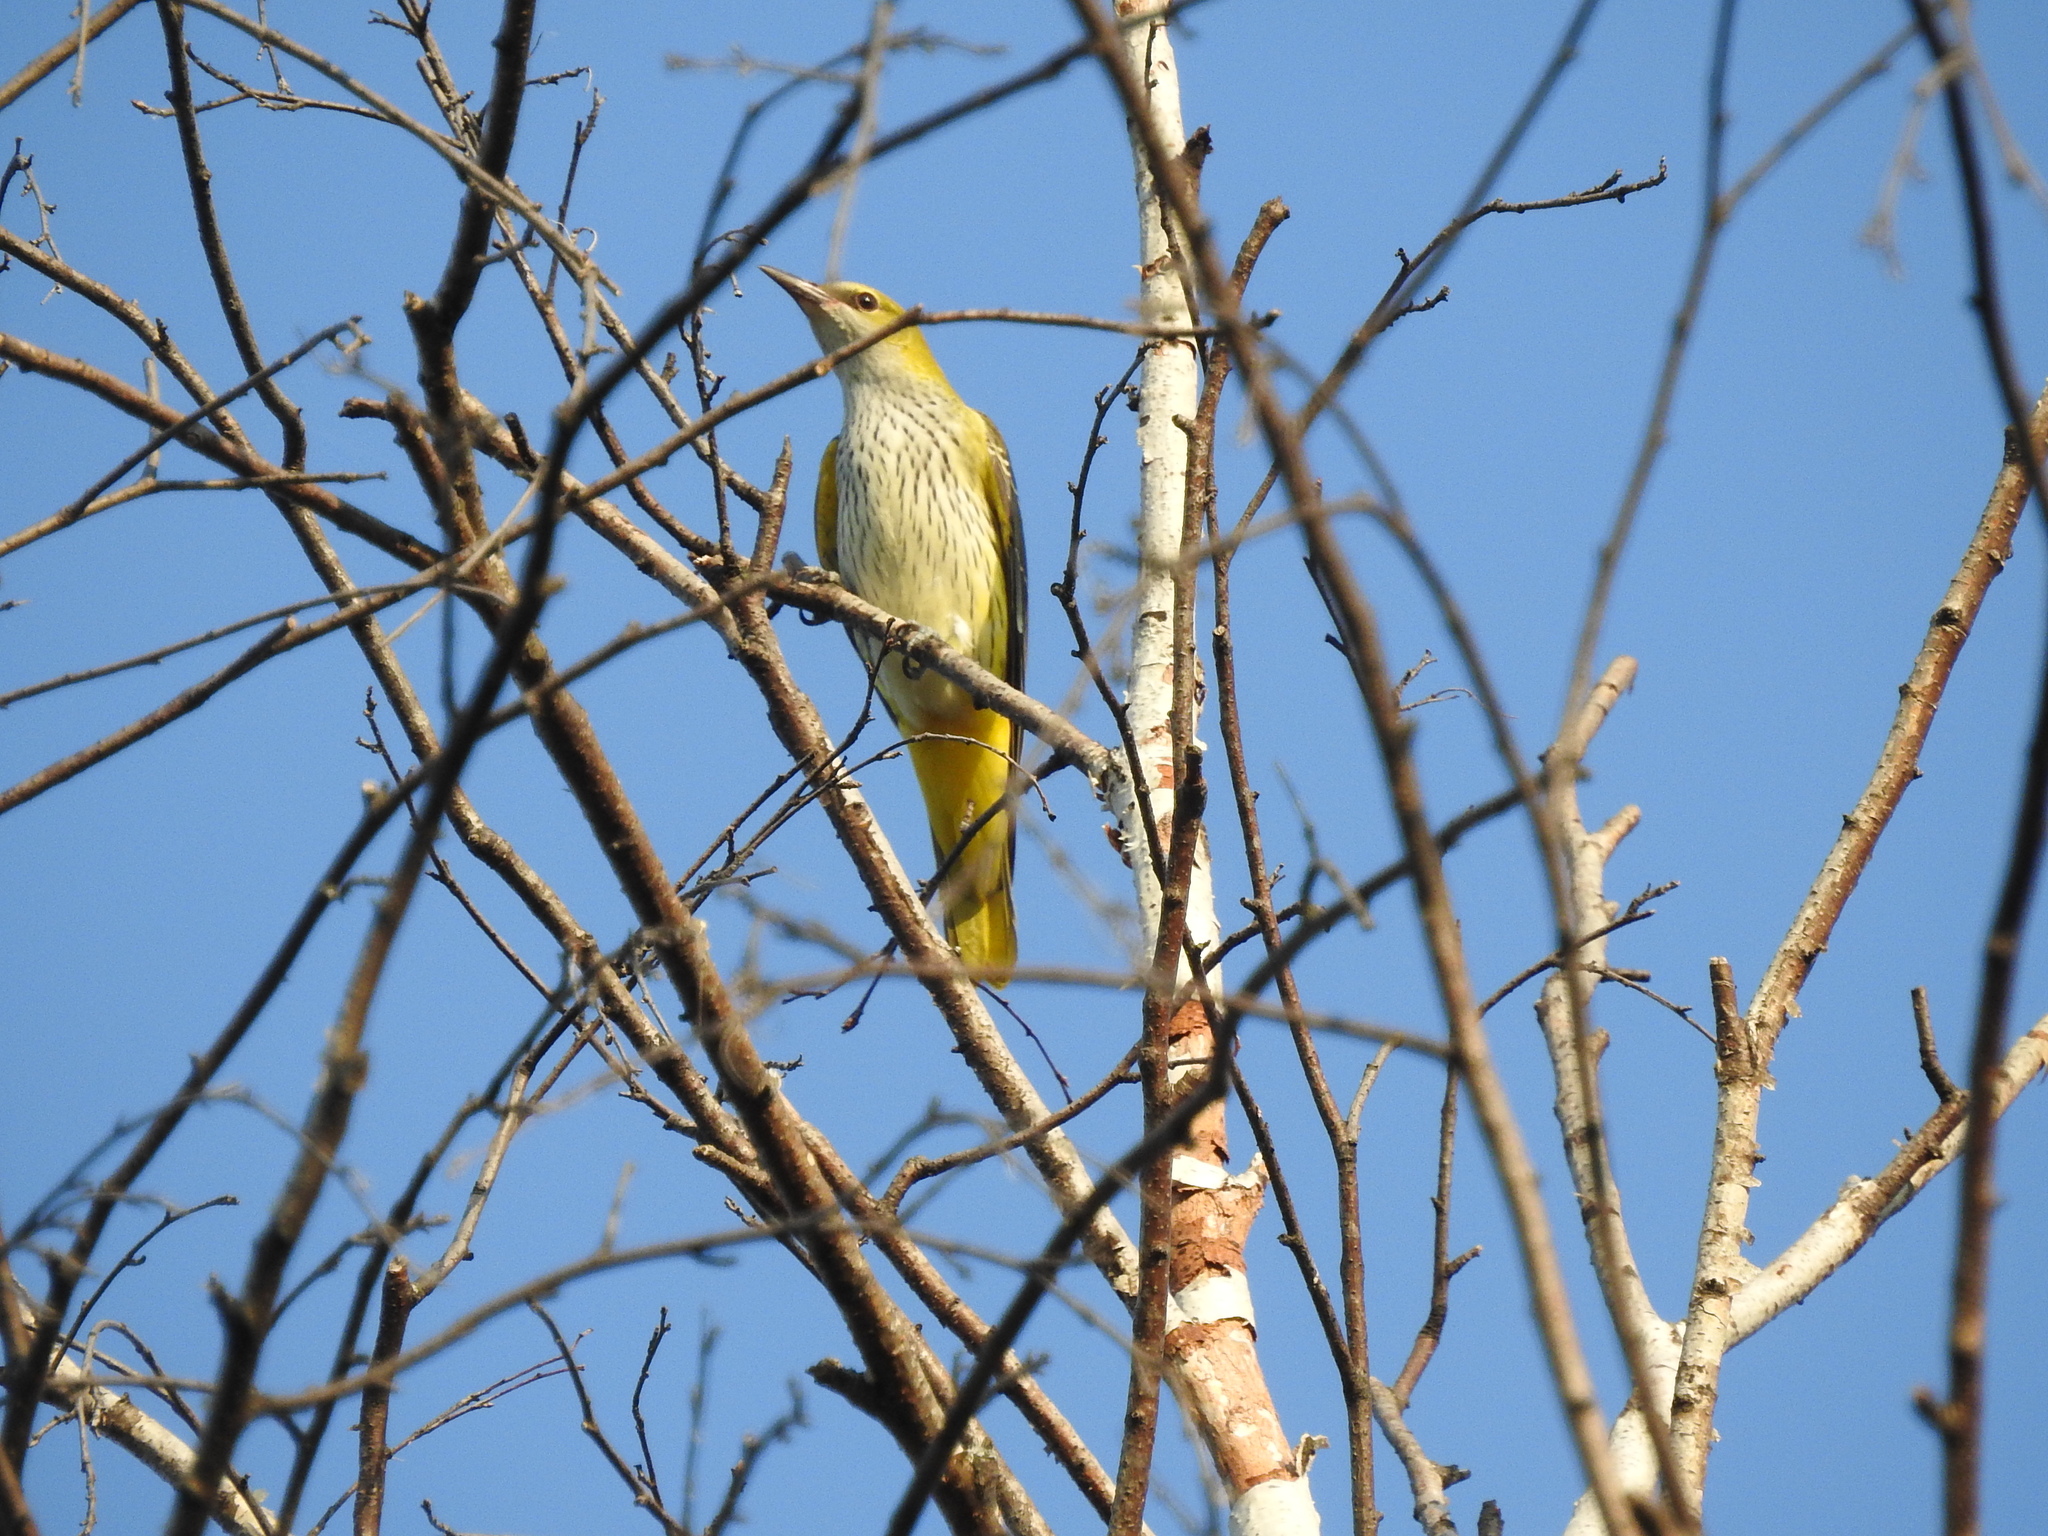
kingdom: Animalia
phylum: Chordata
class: Aves
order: Passeriformes
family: Oriolidae
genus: Oriolus
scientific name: Oriolus oriolus
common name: Eurasian golden oriole
